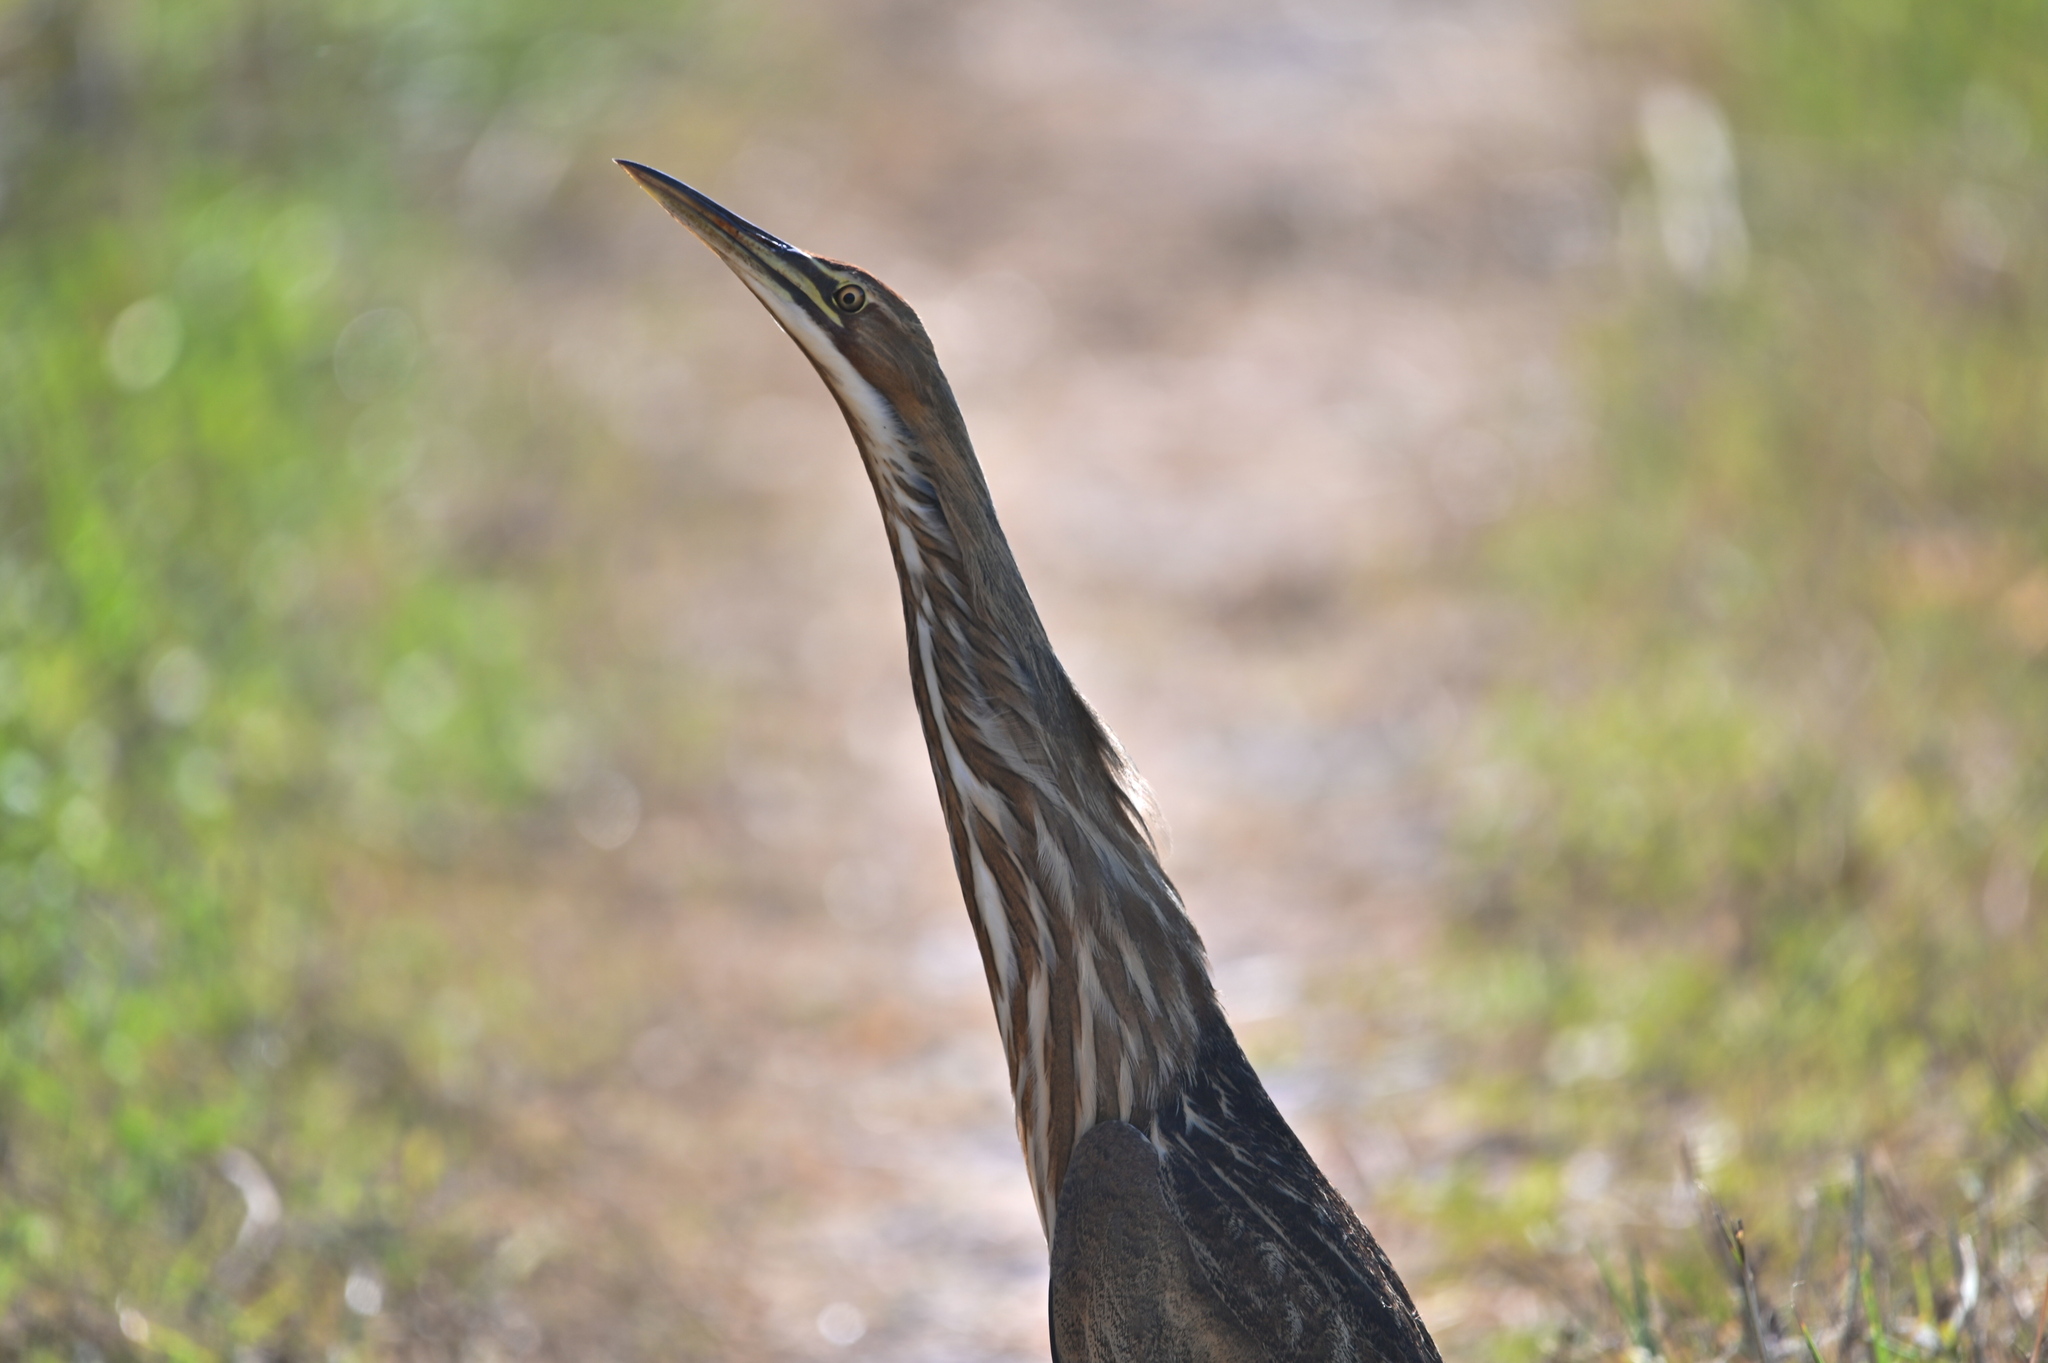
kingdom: Animalia
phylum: Chordata
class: Aves
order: Pelecaniformes
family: Ardeidae
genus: Botaurus
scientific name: Botaurus lentiginosus
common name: American bittern
